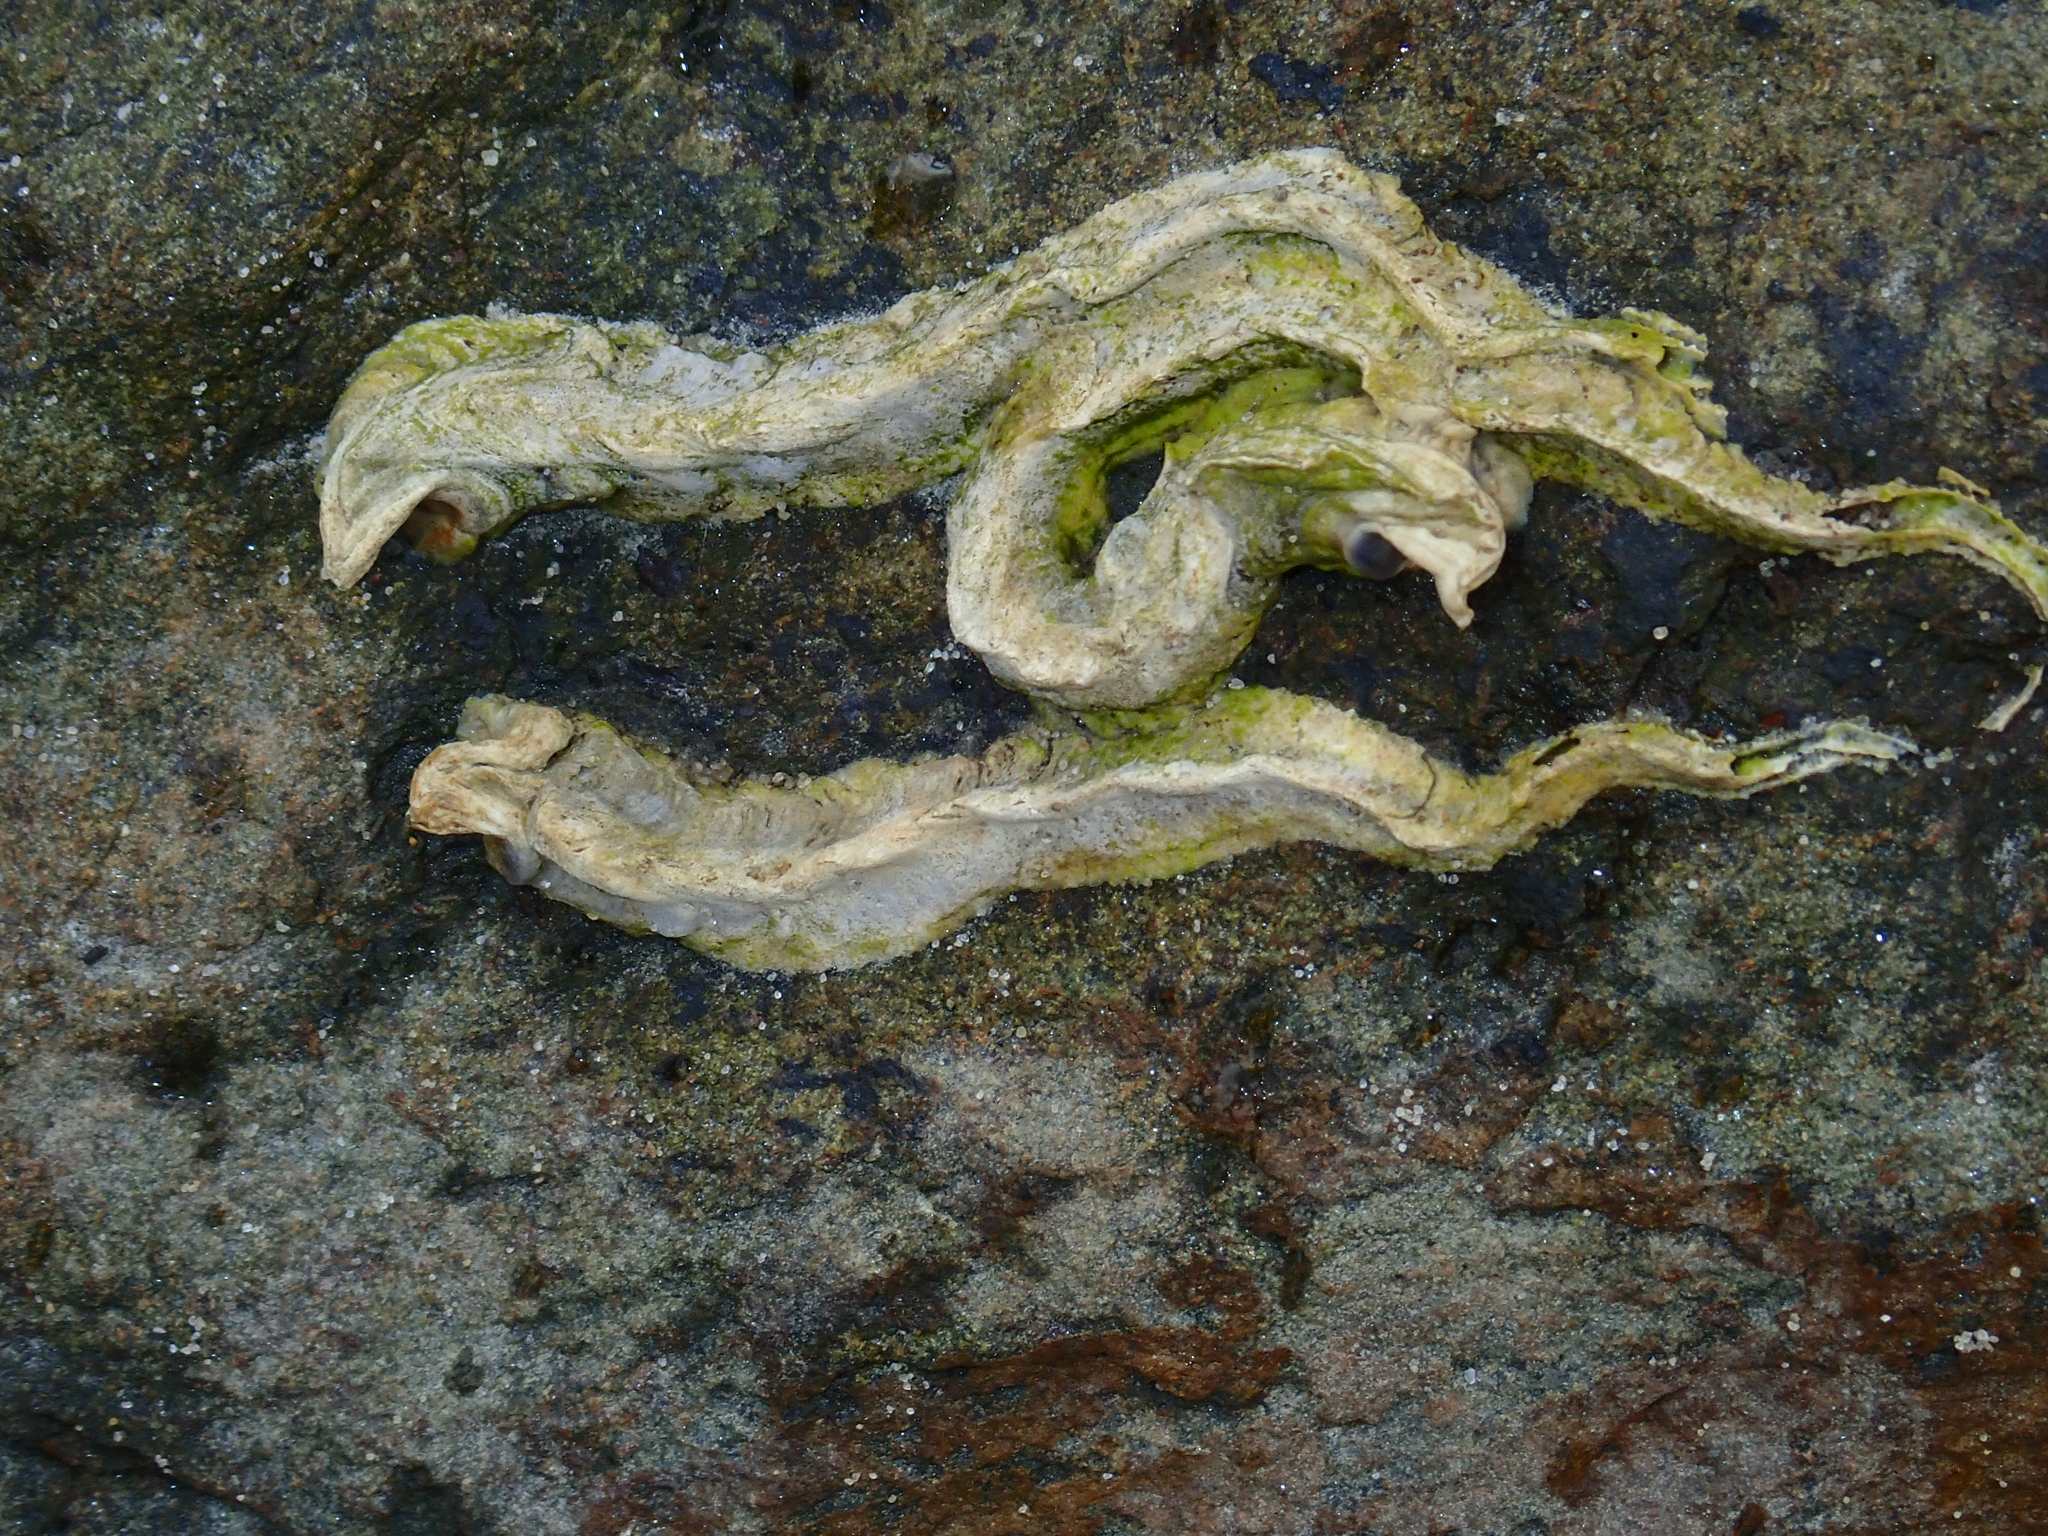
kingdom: Animalia
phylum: Annelida
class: Polychaeta
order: Sabellida
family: Serpulidae
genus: Spirobranchus
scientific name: Spirobranchus cariniferus
